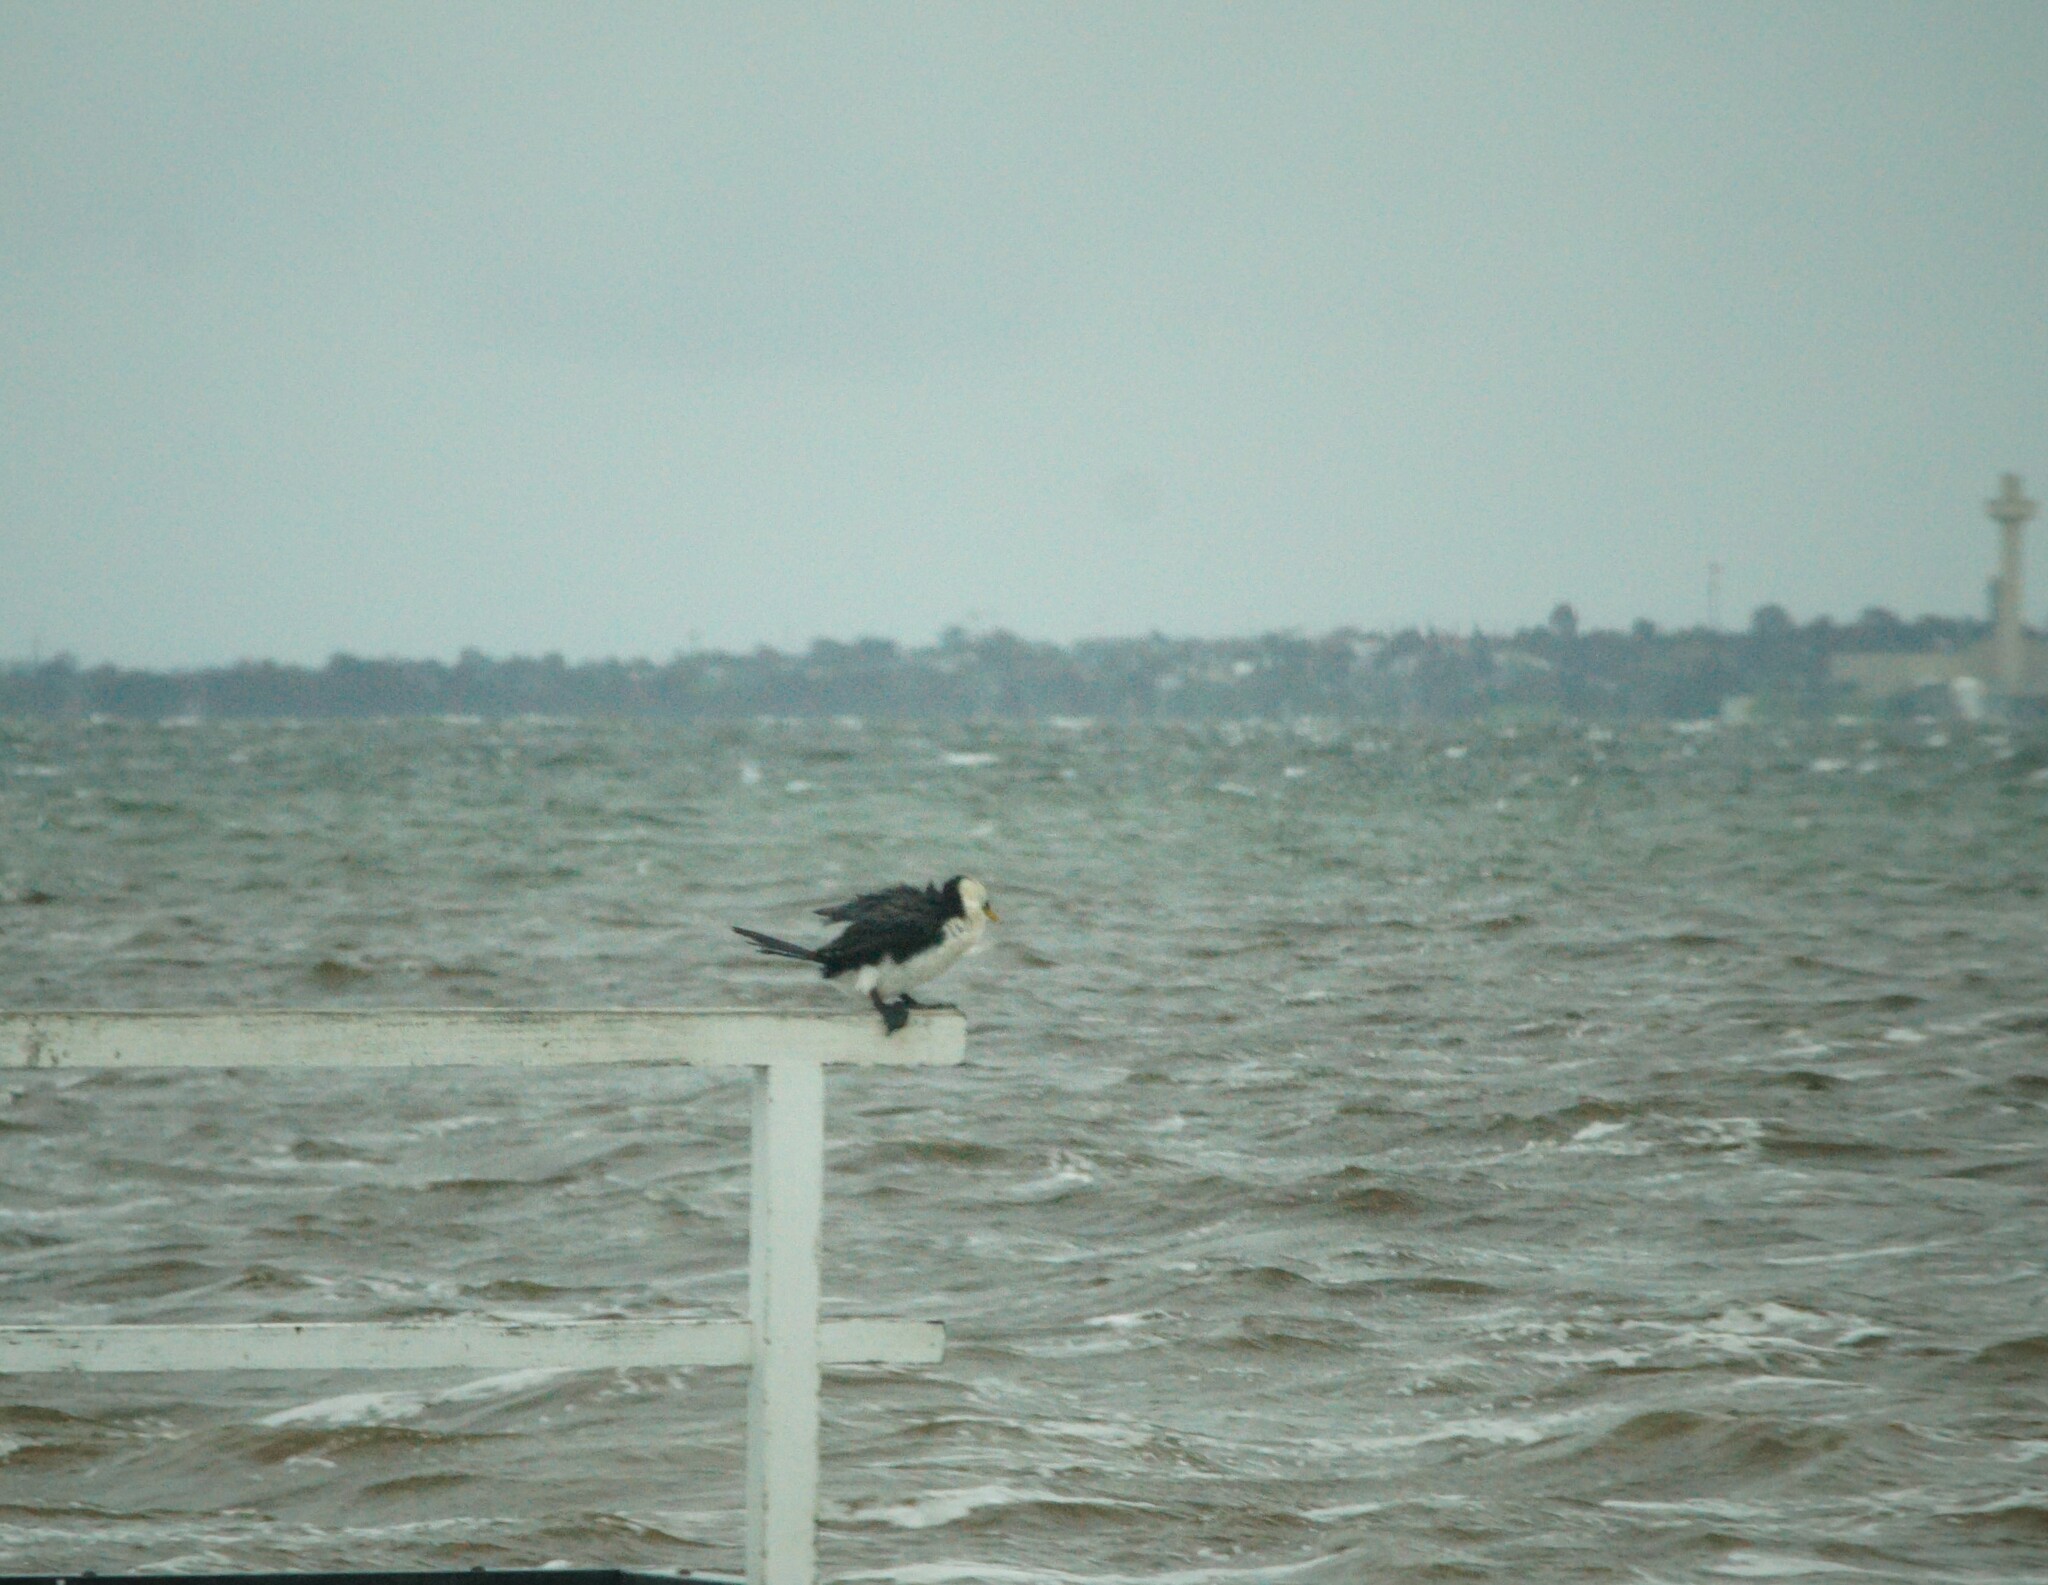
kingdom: Animalia
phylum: Chordata
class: Aves
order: Suliformes
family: Phalacrocoracidae
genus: Microcarbo
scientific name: Microcarbo melanoleucos
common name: Little pied cormorant
